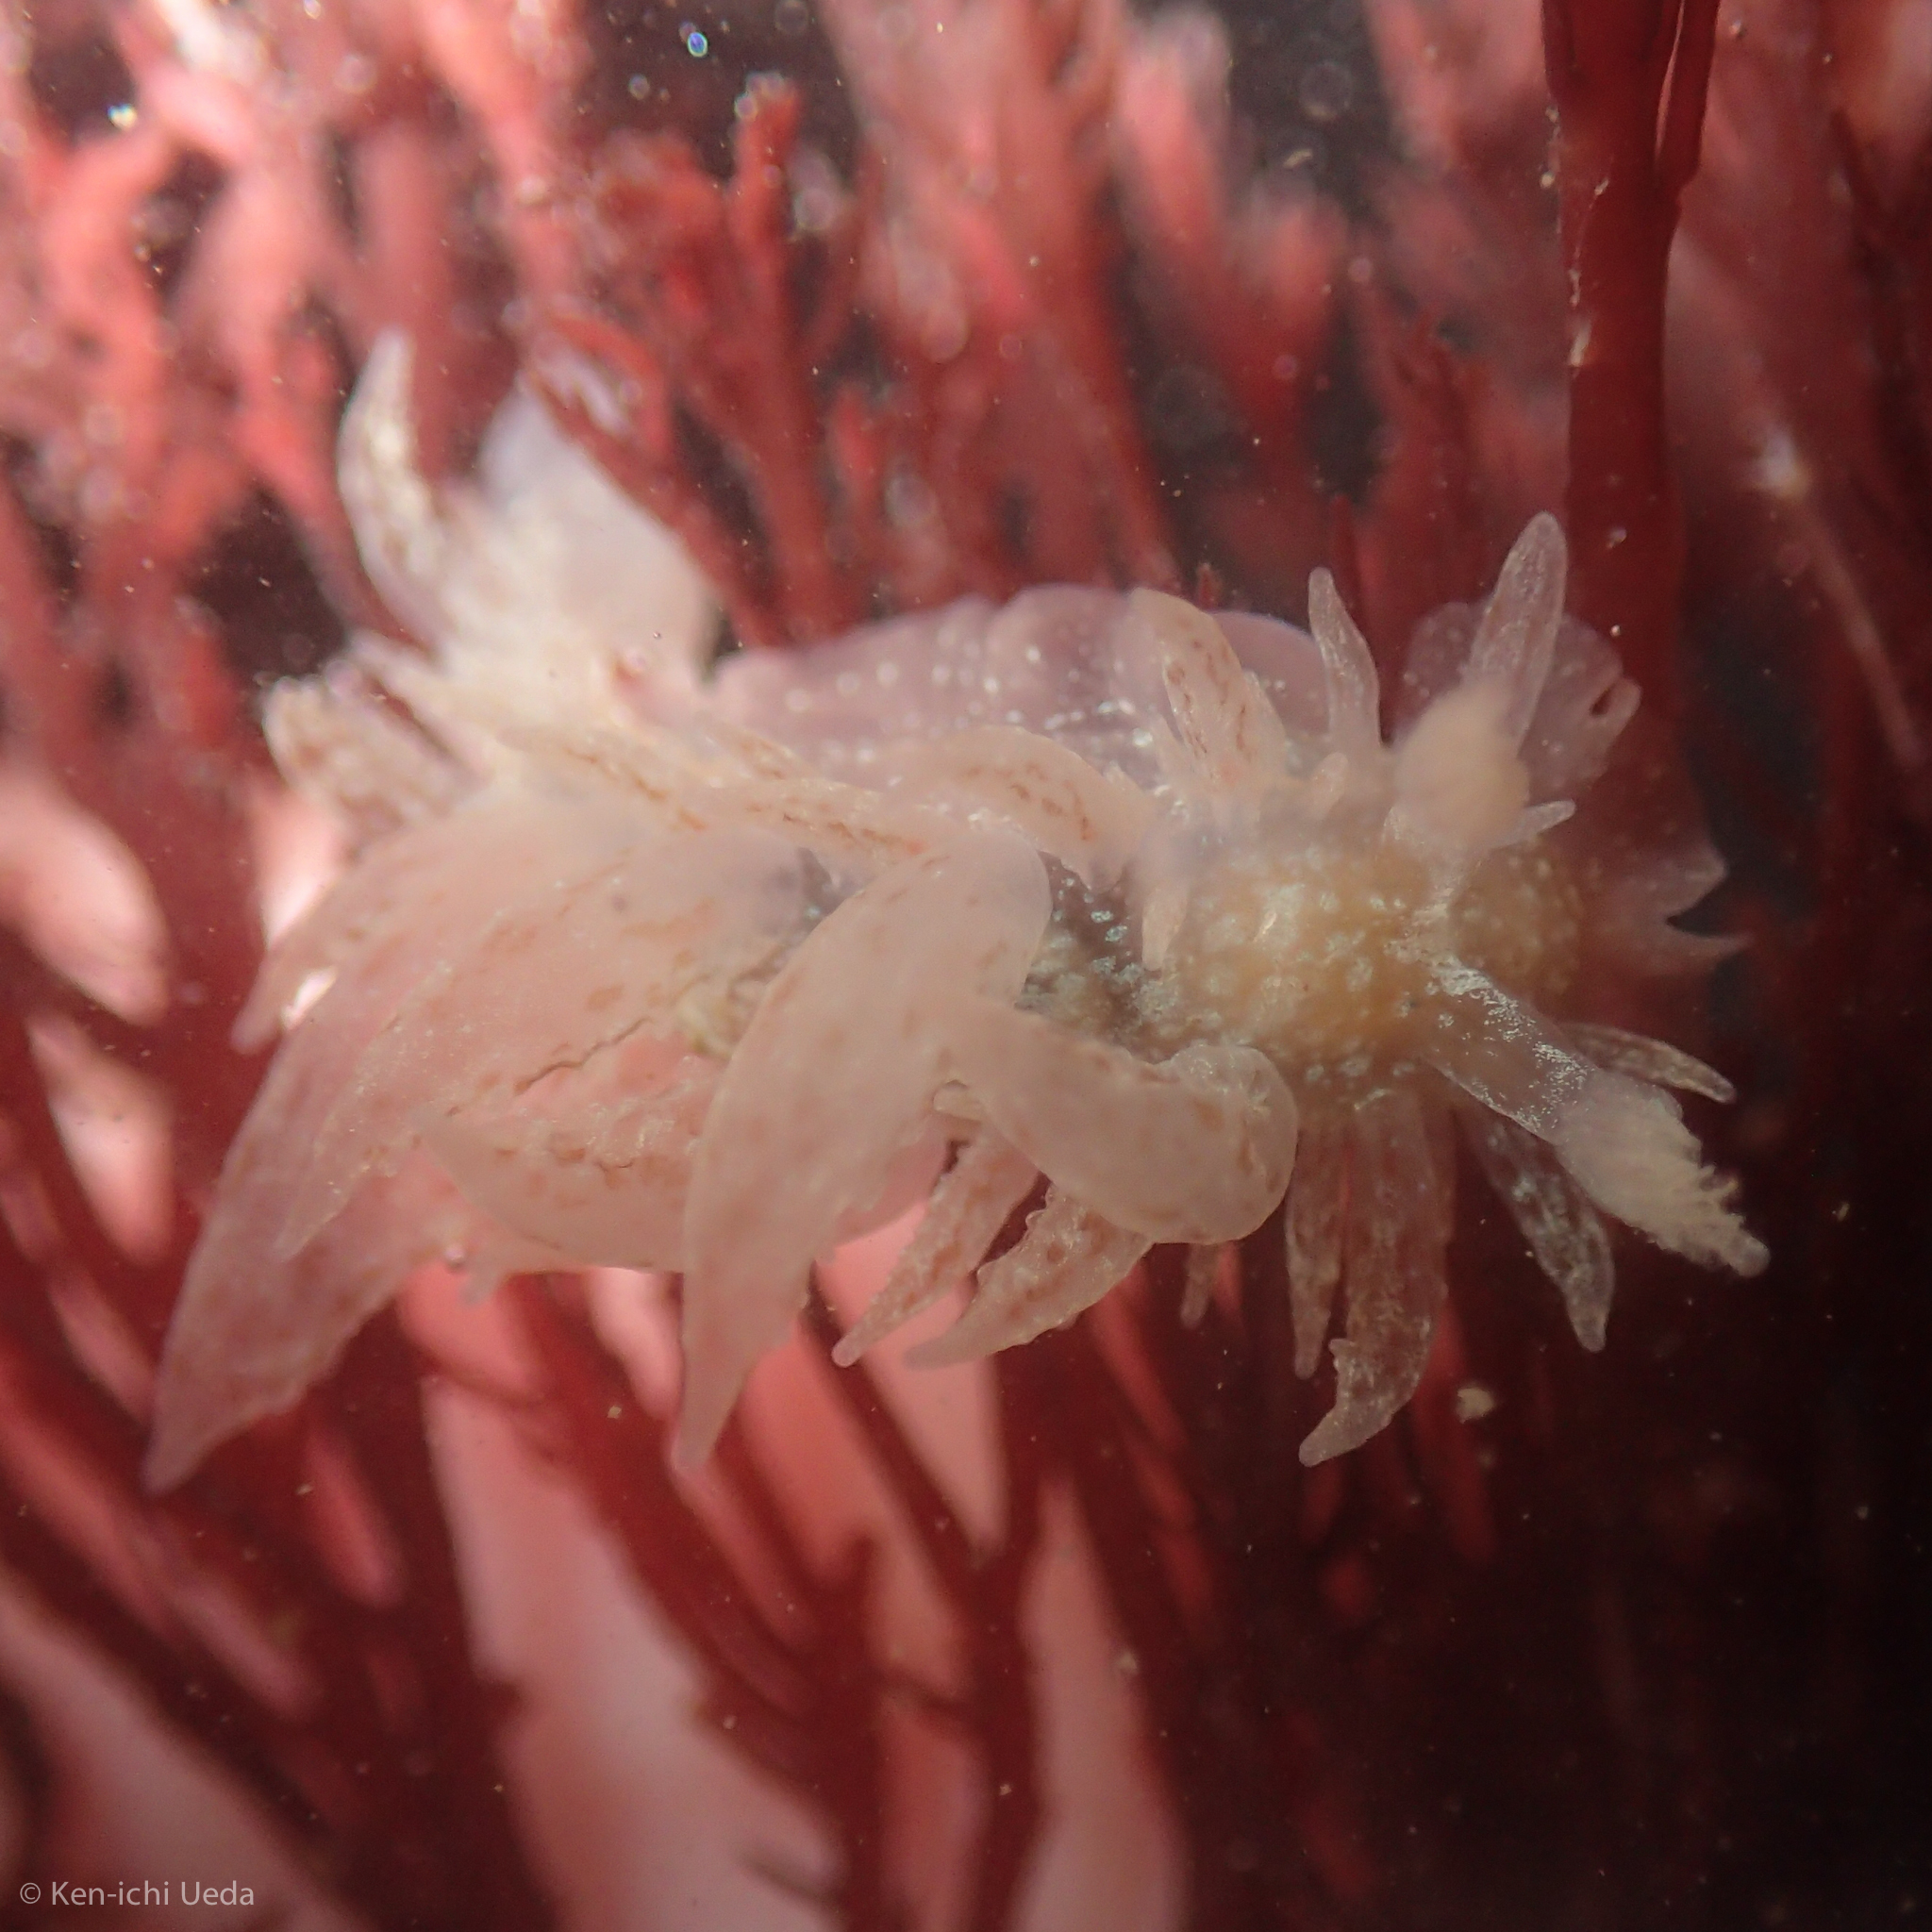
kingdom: Animalia
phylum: Mollusca
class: Gastropoda
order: Nudibranchia
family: Dironidae
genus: Dirona
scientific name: Dirona picta
